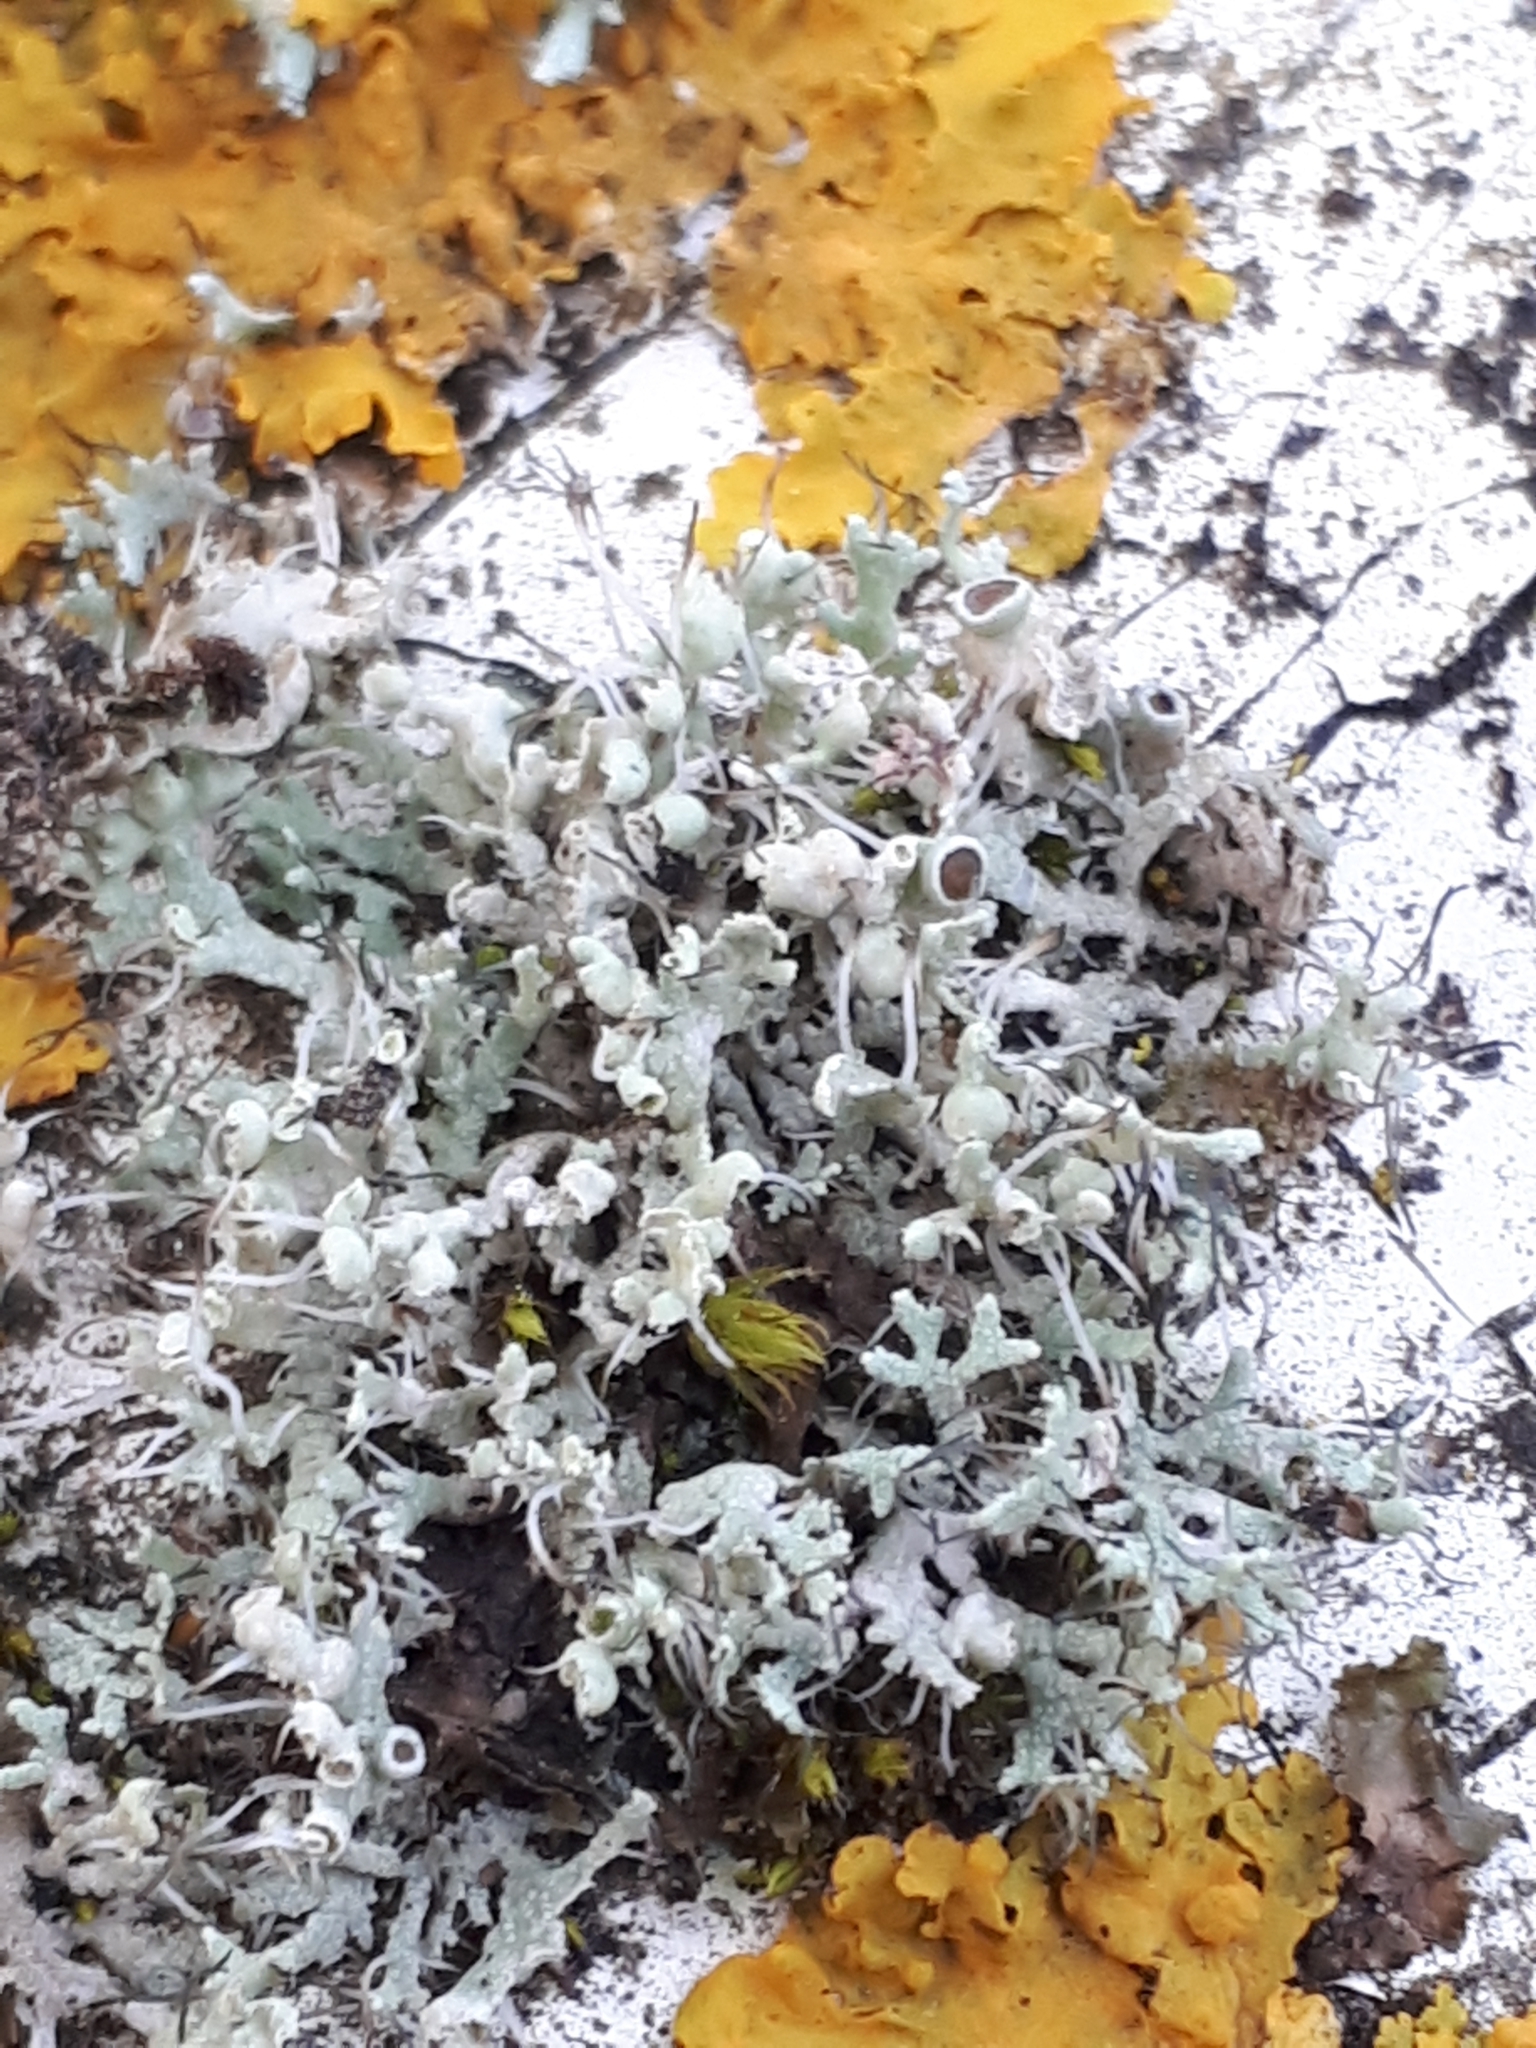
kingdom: Fungi
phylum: Ascomycota
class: Lecanoromycetes
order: Caliciales
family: Physciaceae
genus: Physcia
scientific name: Physcia adscendens
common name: Hooded rosette lichen
